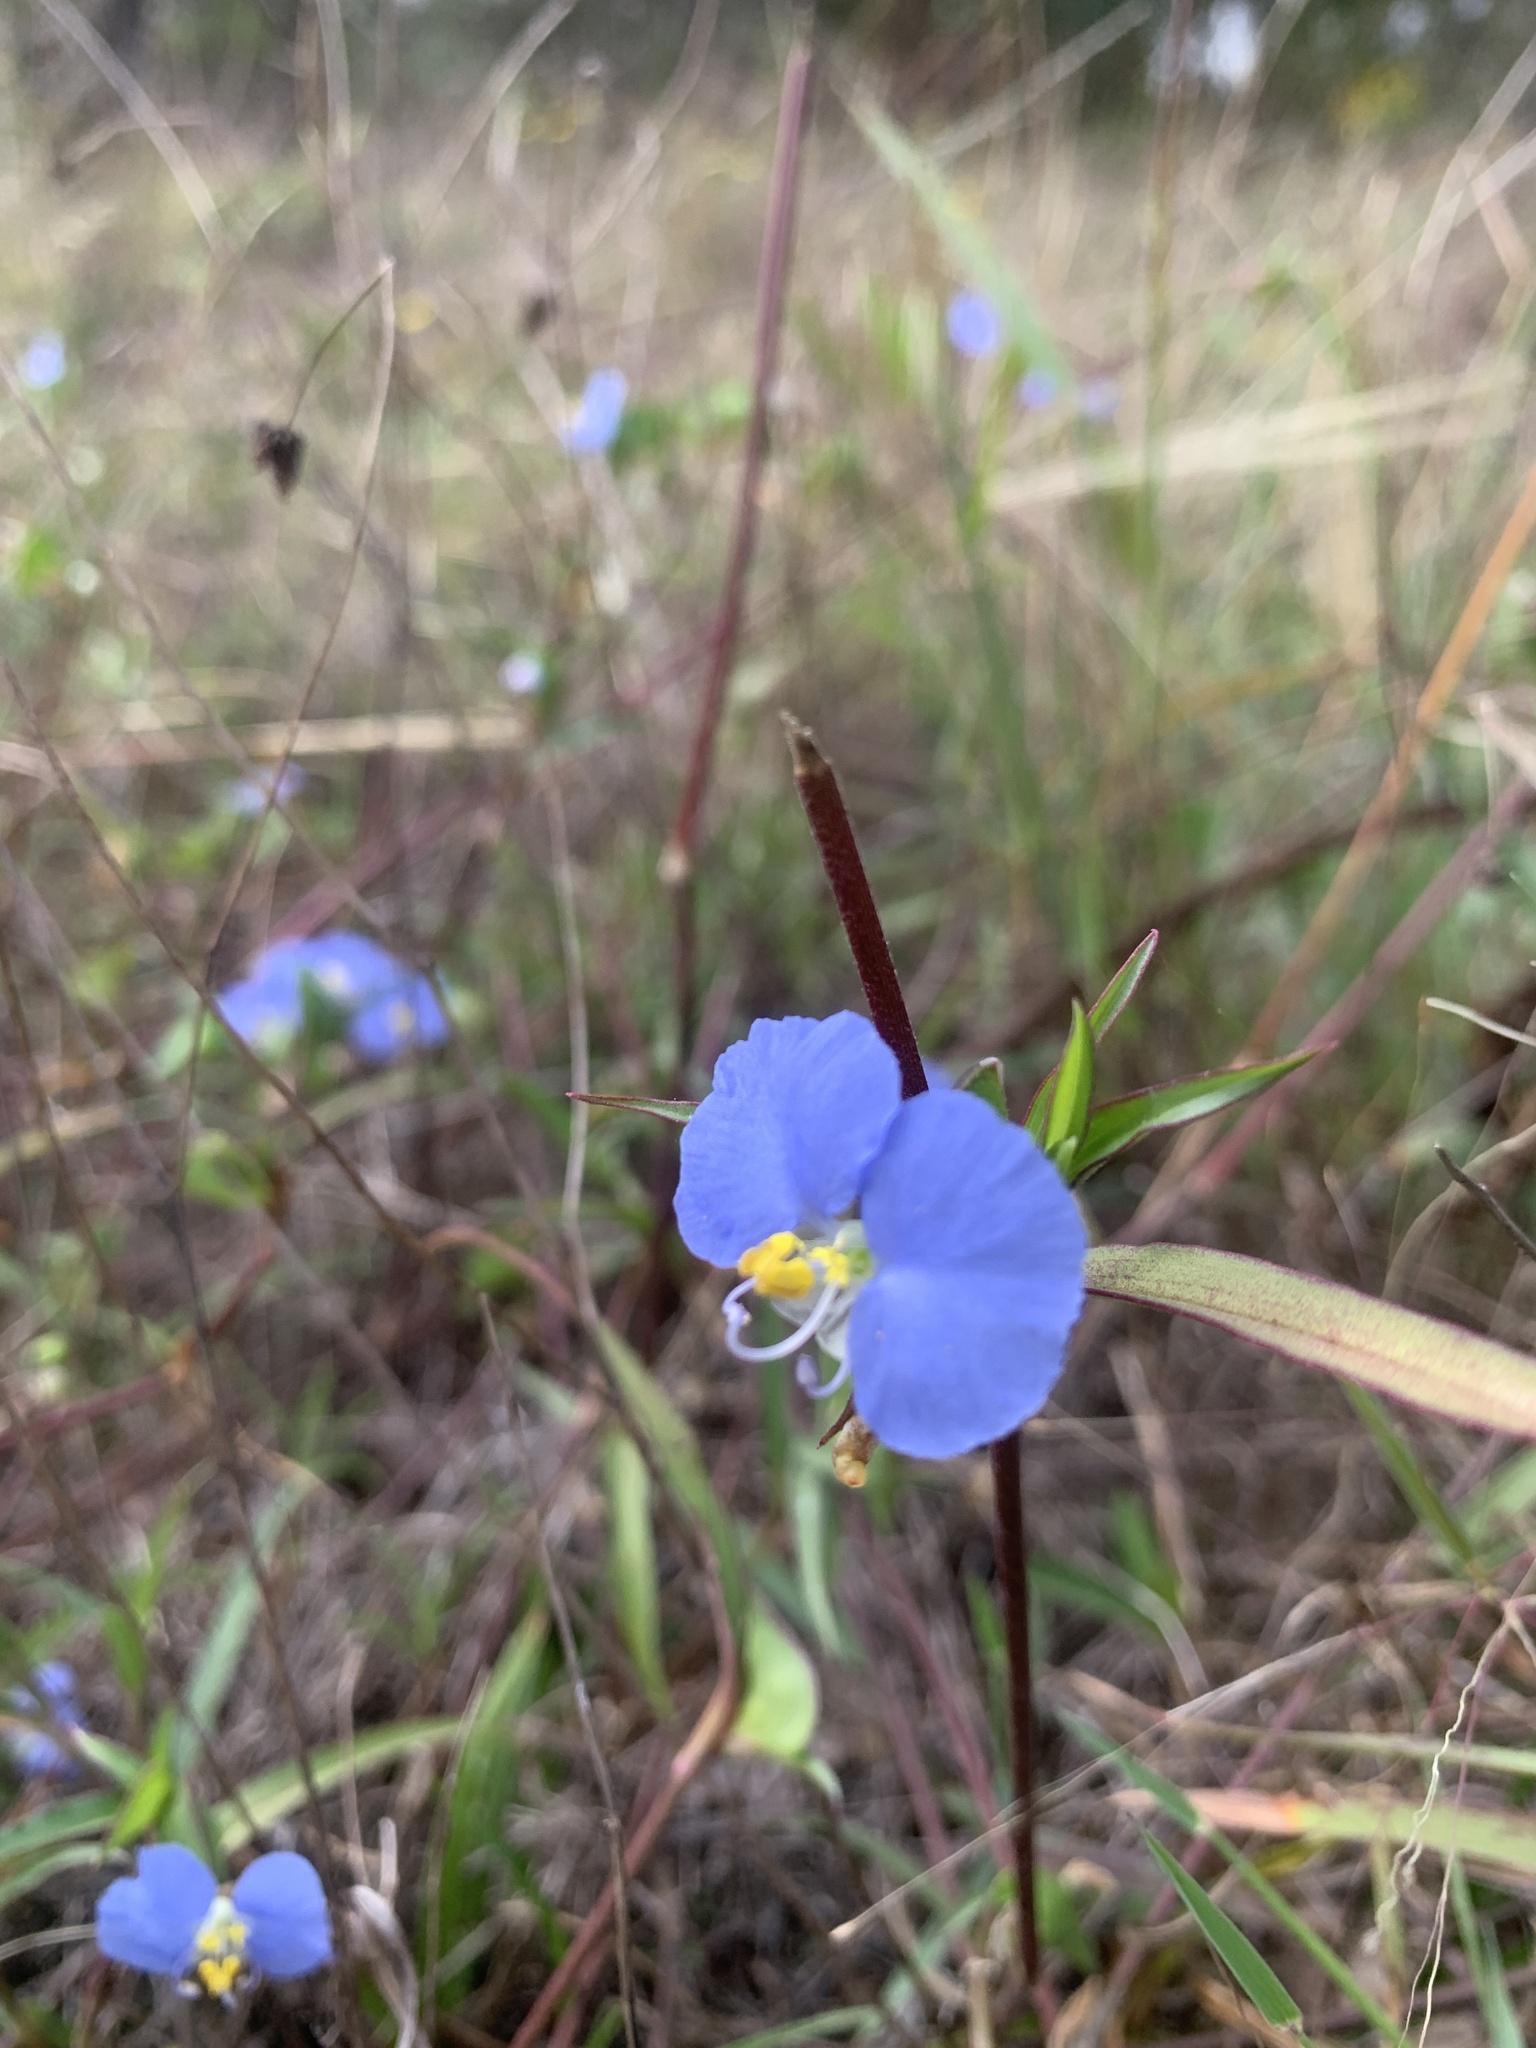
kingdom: Plantae
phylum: Tracheophyta
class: Liliopsida
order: Commelinales
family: Commelinaceae
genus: Commelina
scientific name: Commelina erecta
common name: Blousel blommetjie
